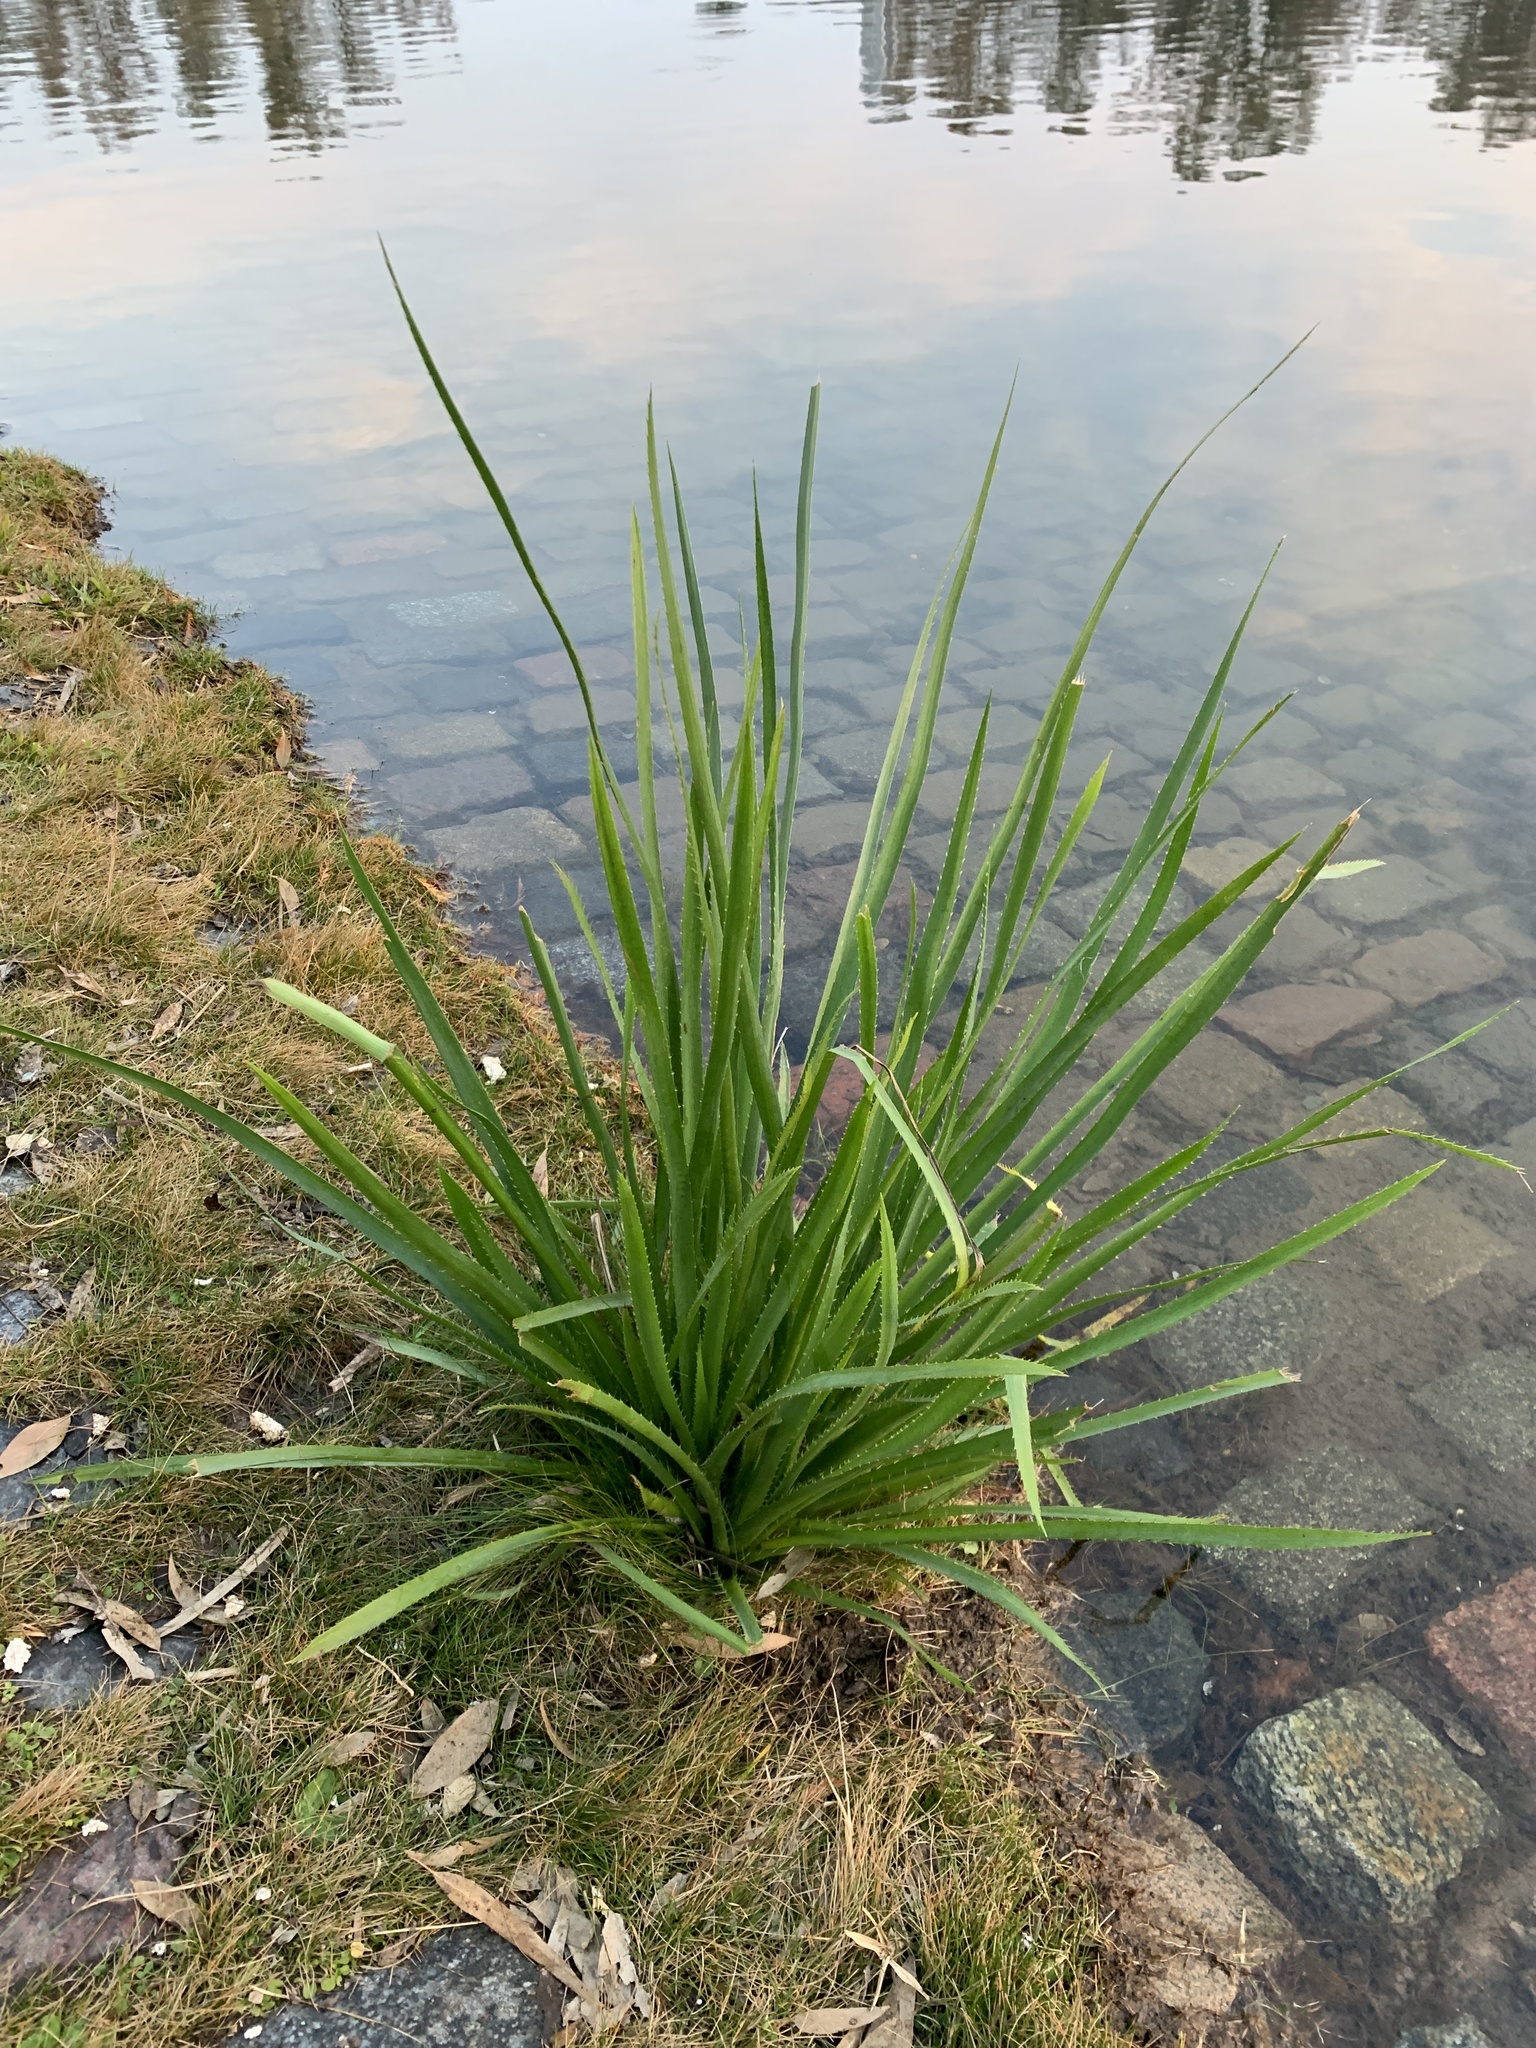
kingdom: Plantae
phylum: Tracheophyta
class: Magnoliopsida
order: Apiales
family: Apiaceae
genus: Eryngium
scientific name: Eryngium pandanifolium
